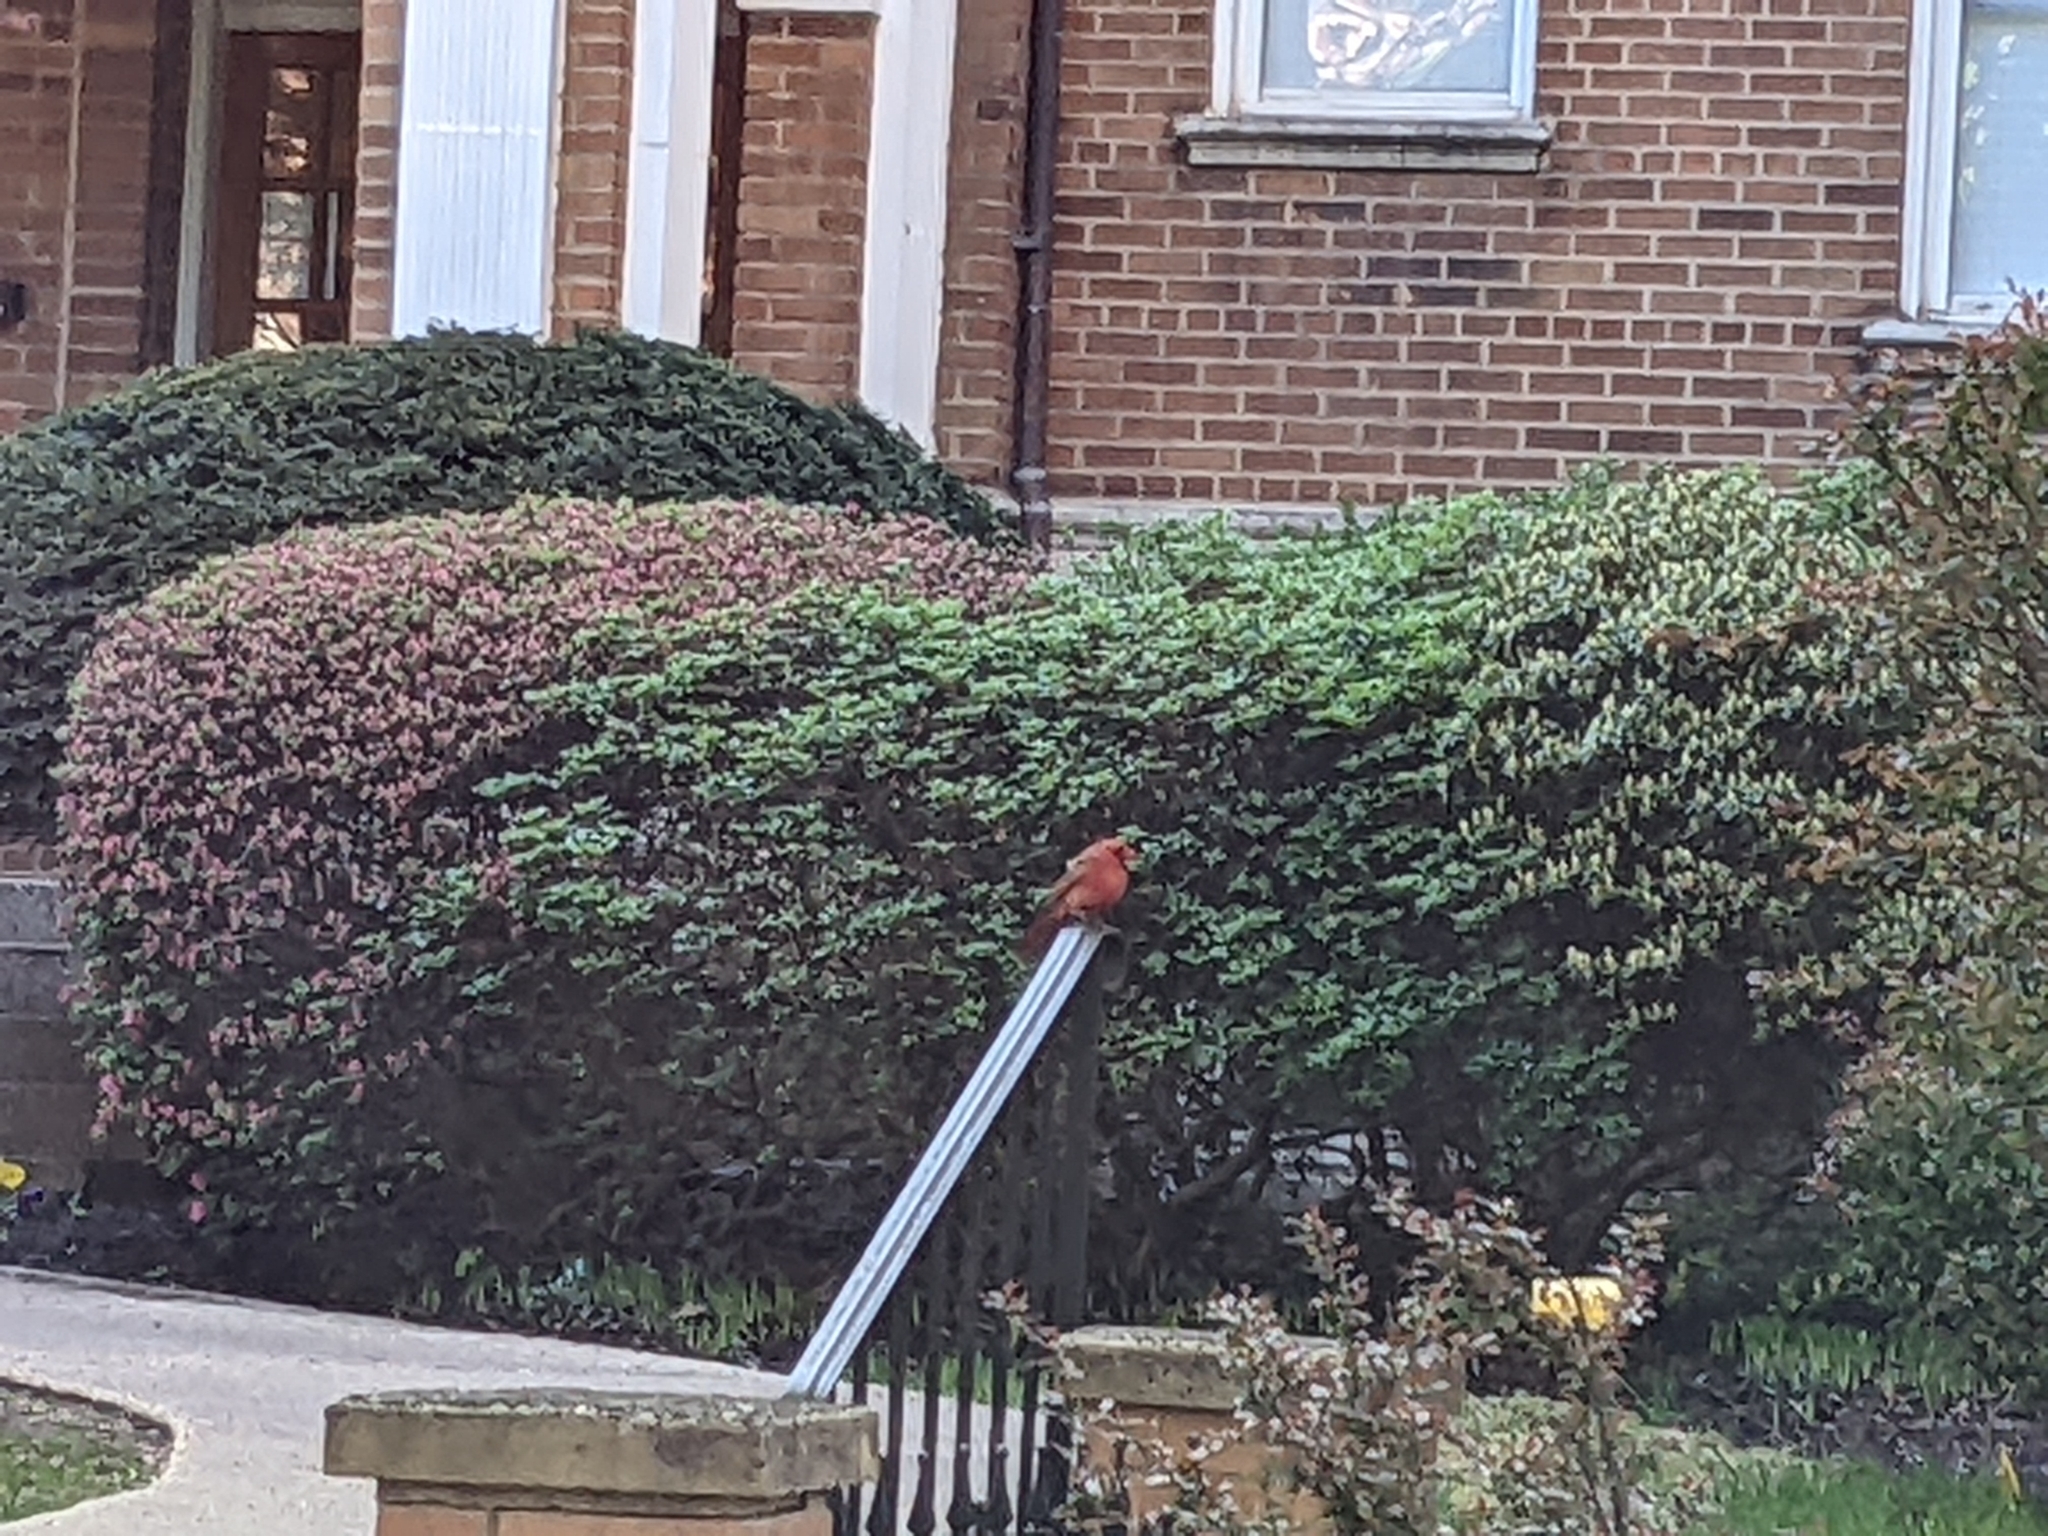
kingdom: Animalia
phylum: Chordata
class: Aves
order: Passeriformes
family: Cardinalidae
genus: Cardinalis
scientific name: Cardinalis cardinalis
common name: Northern cardinal
